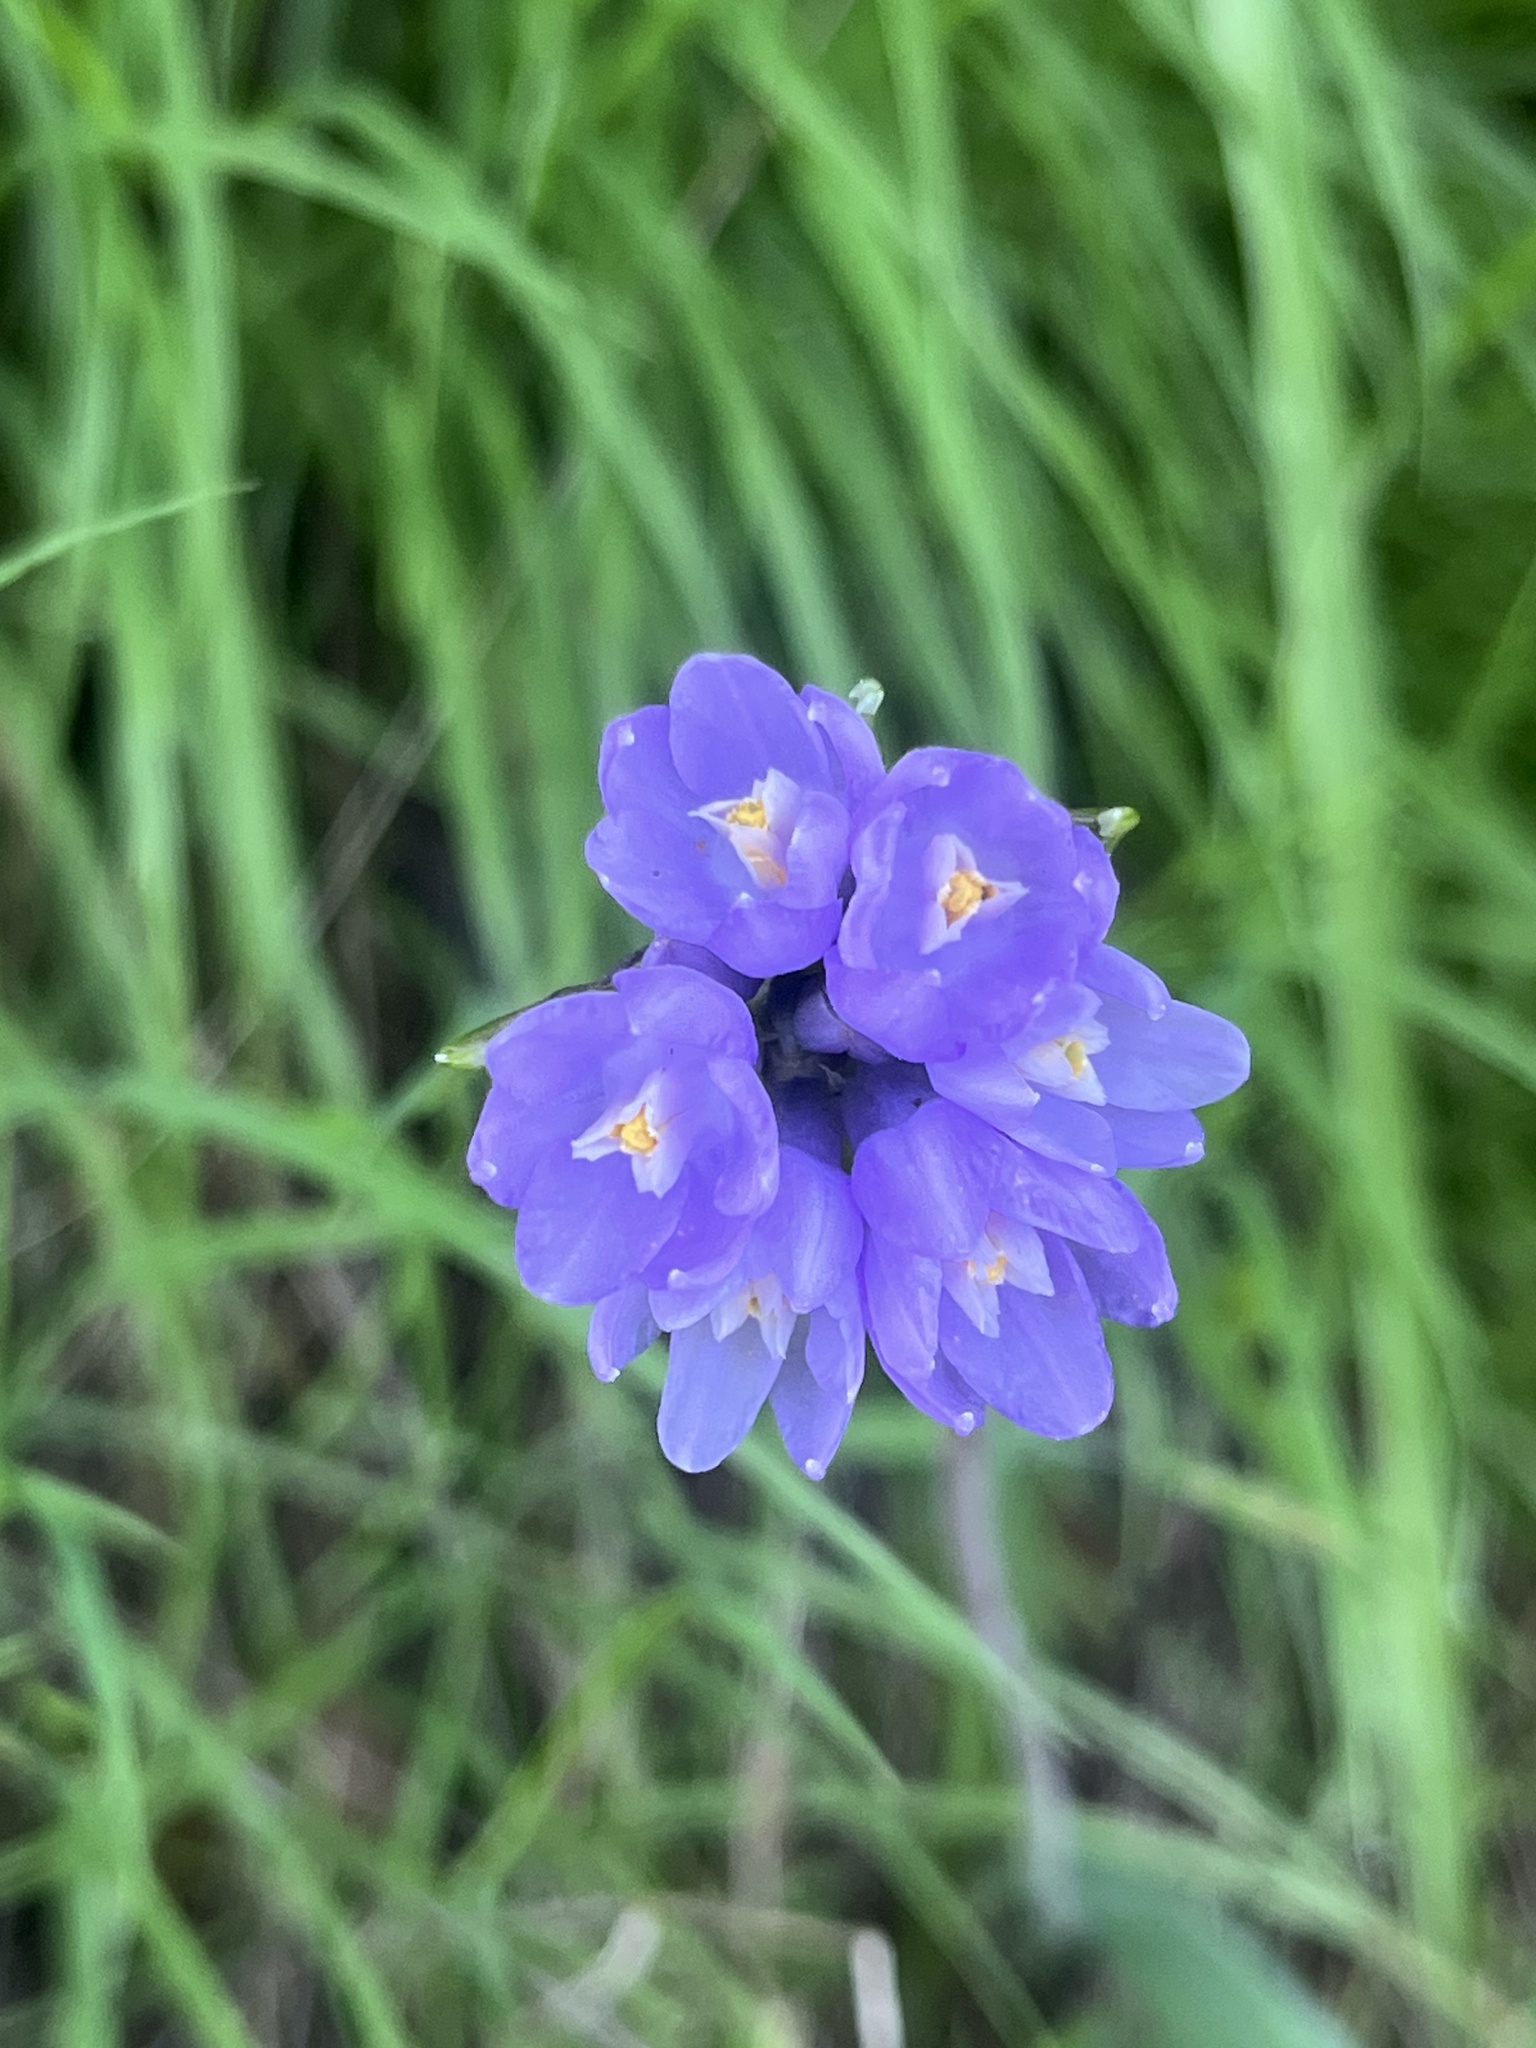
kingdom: Plantae
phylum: Tracheophyta
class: Liliopsida
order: Asparagales
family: Asparagaceae
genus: Dipterostemon
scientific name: Dipterostemon capitatus
